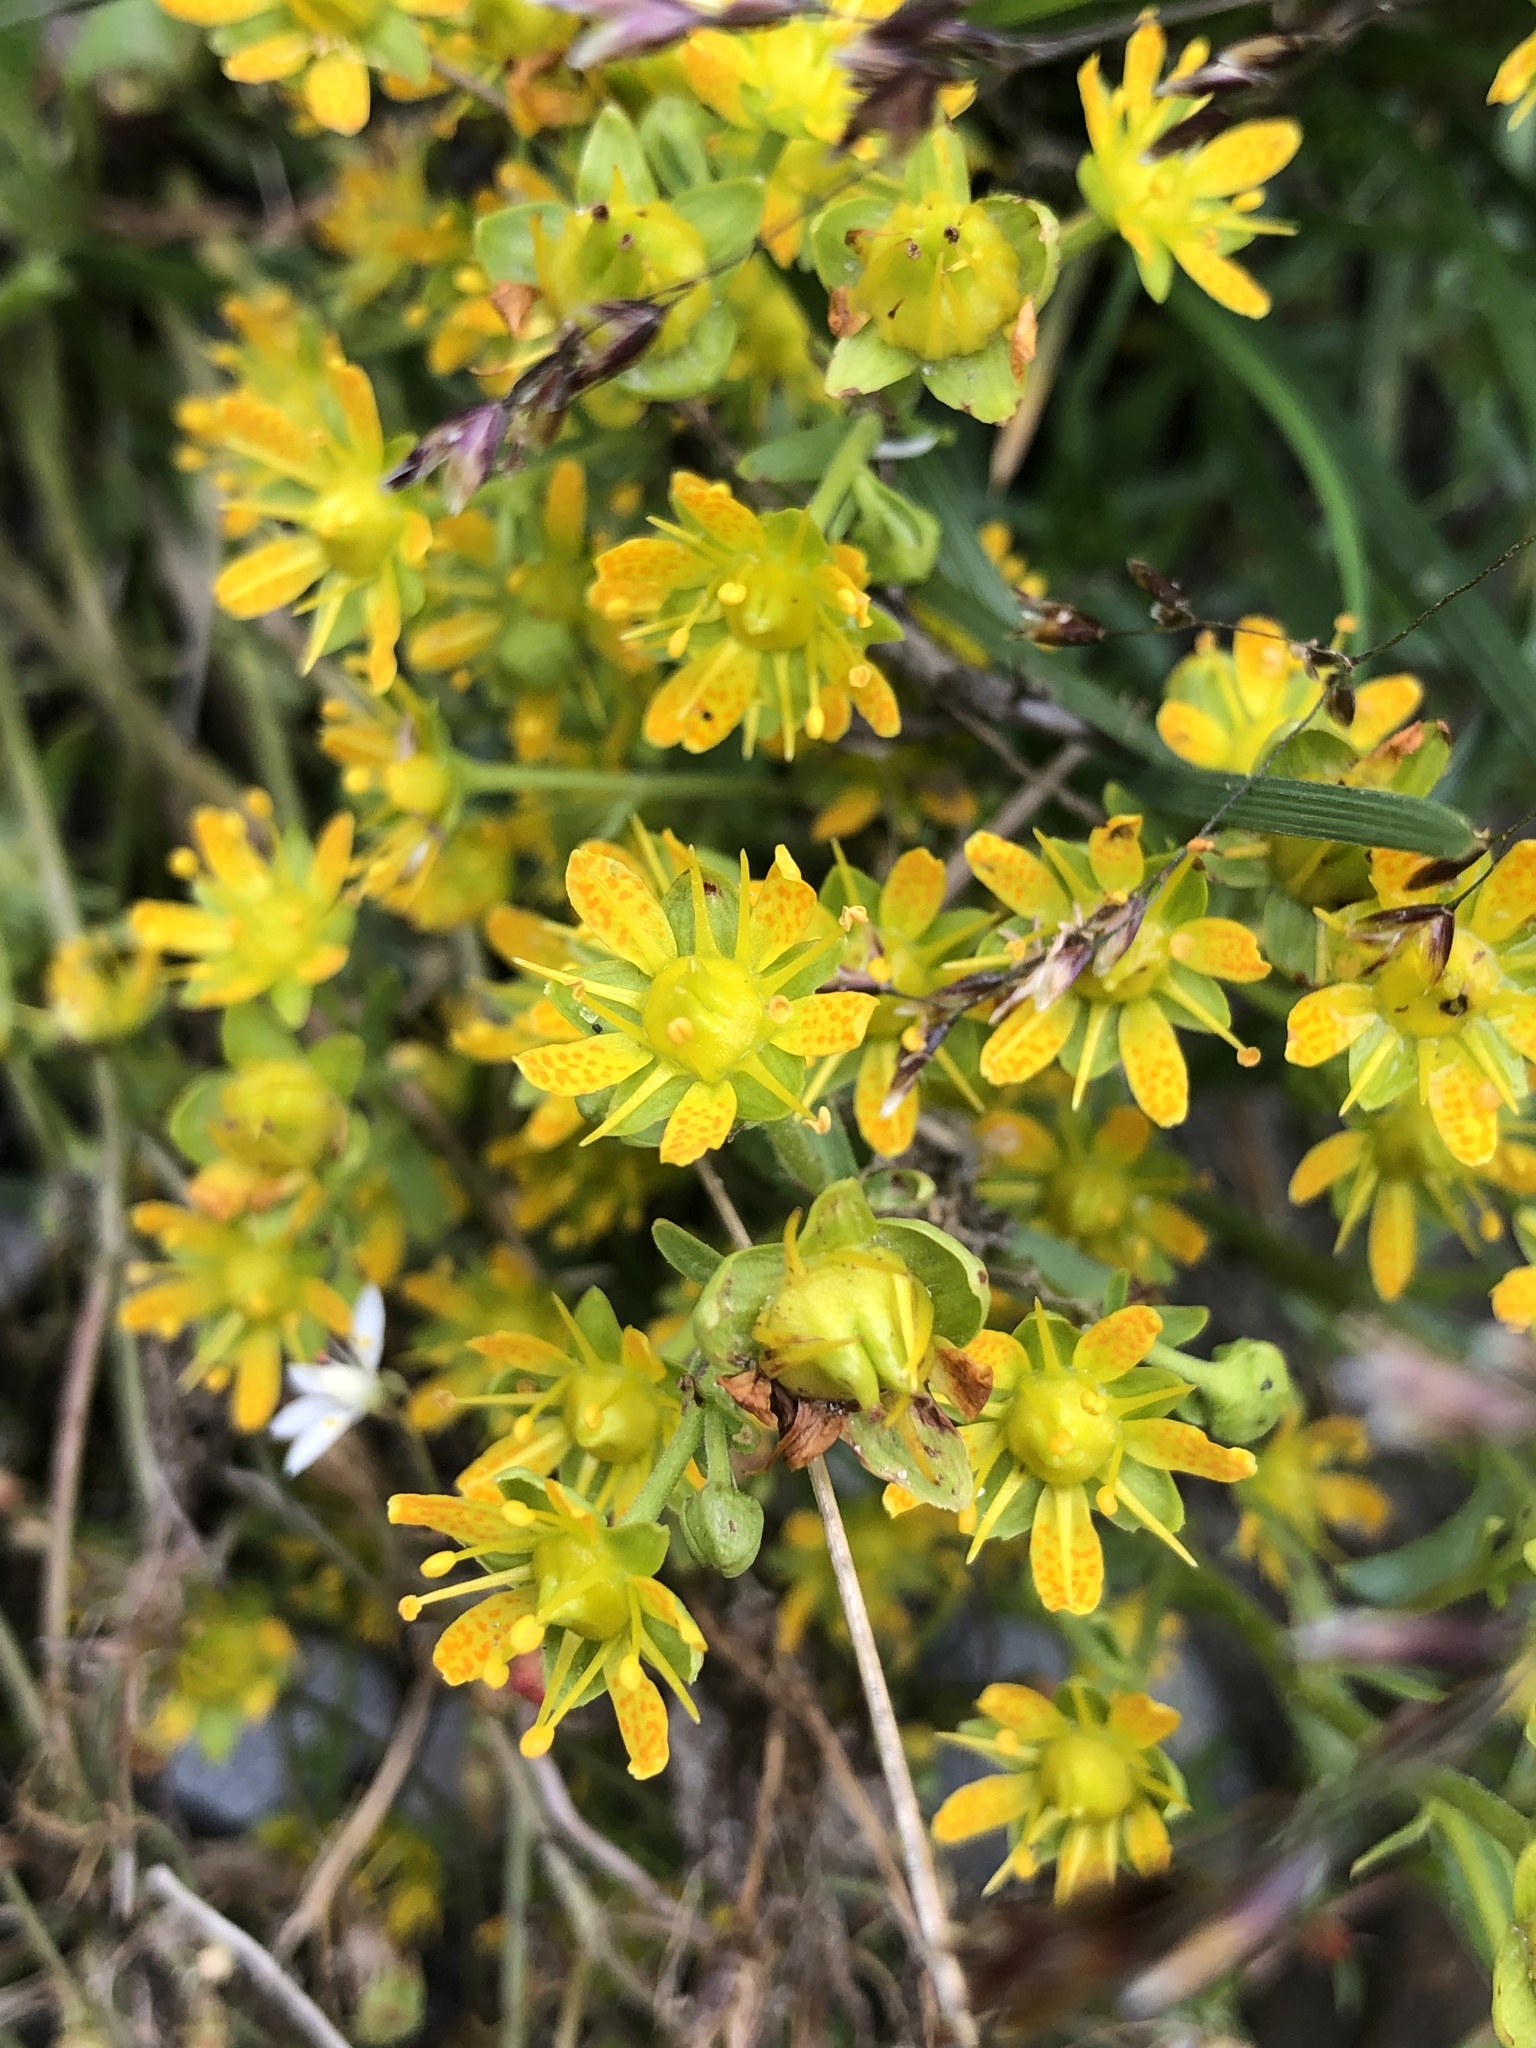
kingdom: Plantae
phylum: Tracheophyta
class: Magnoliopsida
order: Saxifragales
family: Saxifragaceae
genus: Saxifraga
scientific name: Saxifraga aizoides
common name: Yellow mountain saxifrage
